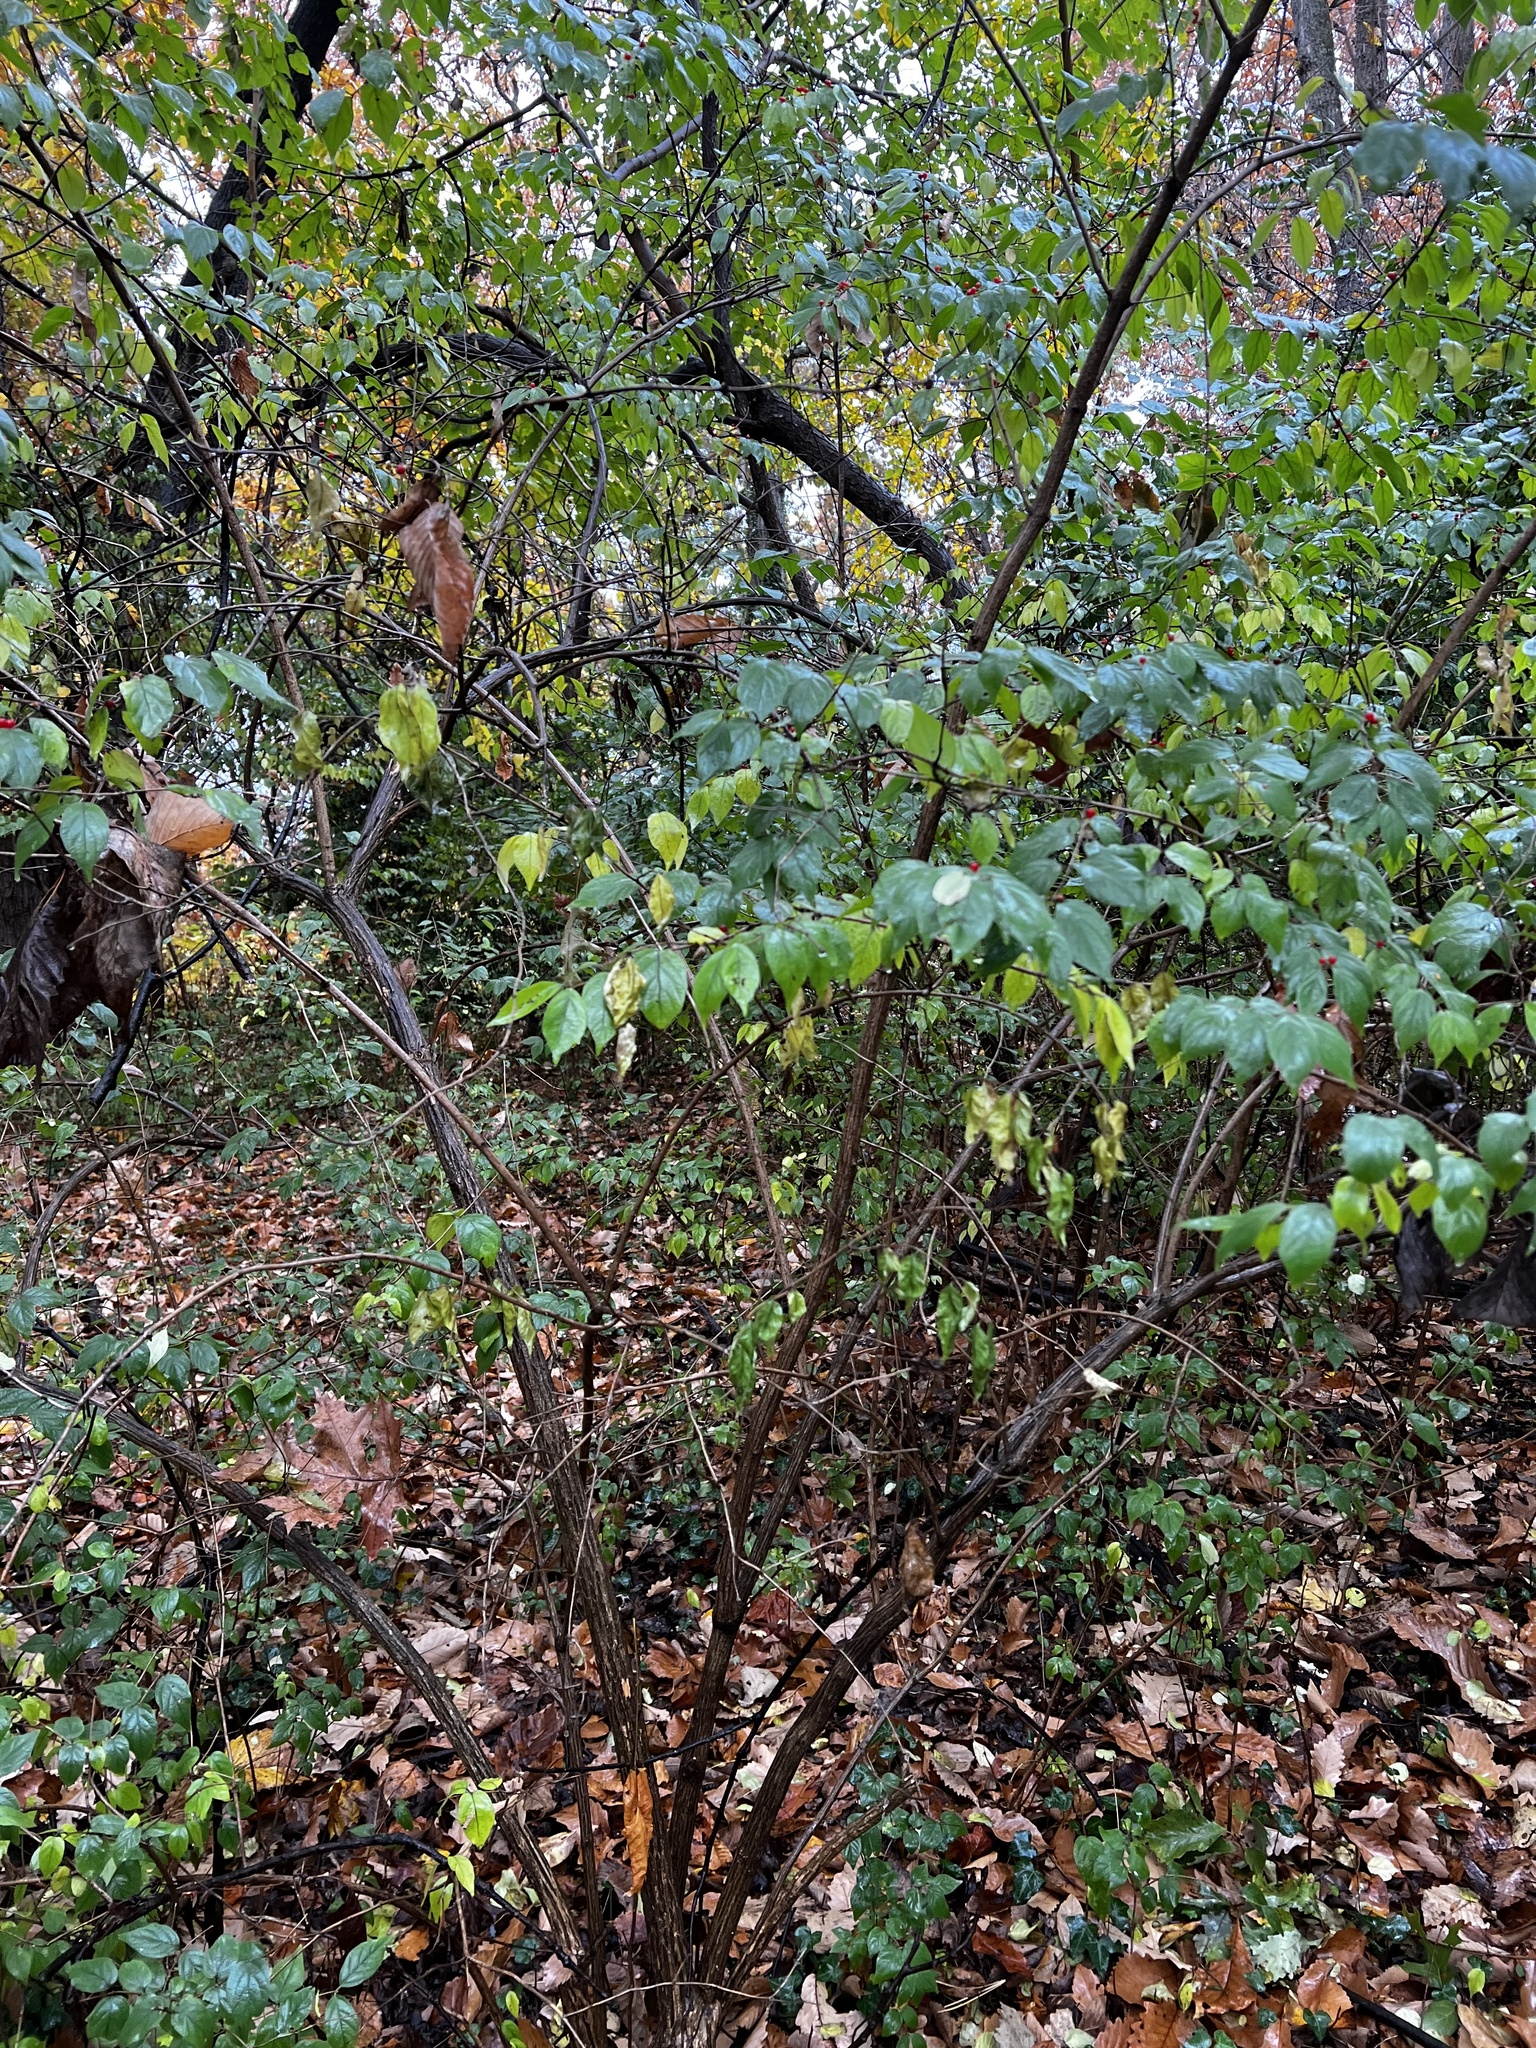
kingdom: Plantae
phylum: Tracheophyta
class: Magnoliopsida
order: Dipsacales
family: Caprifoliaceae
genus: Lonicera
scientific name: Lonicera maackii
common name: Amur honeysuckle
